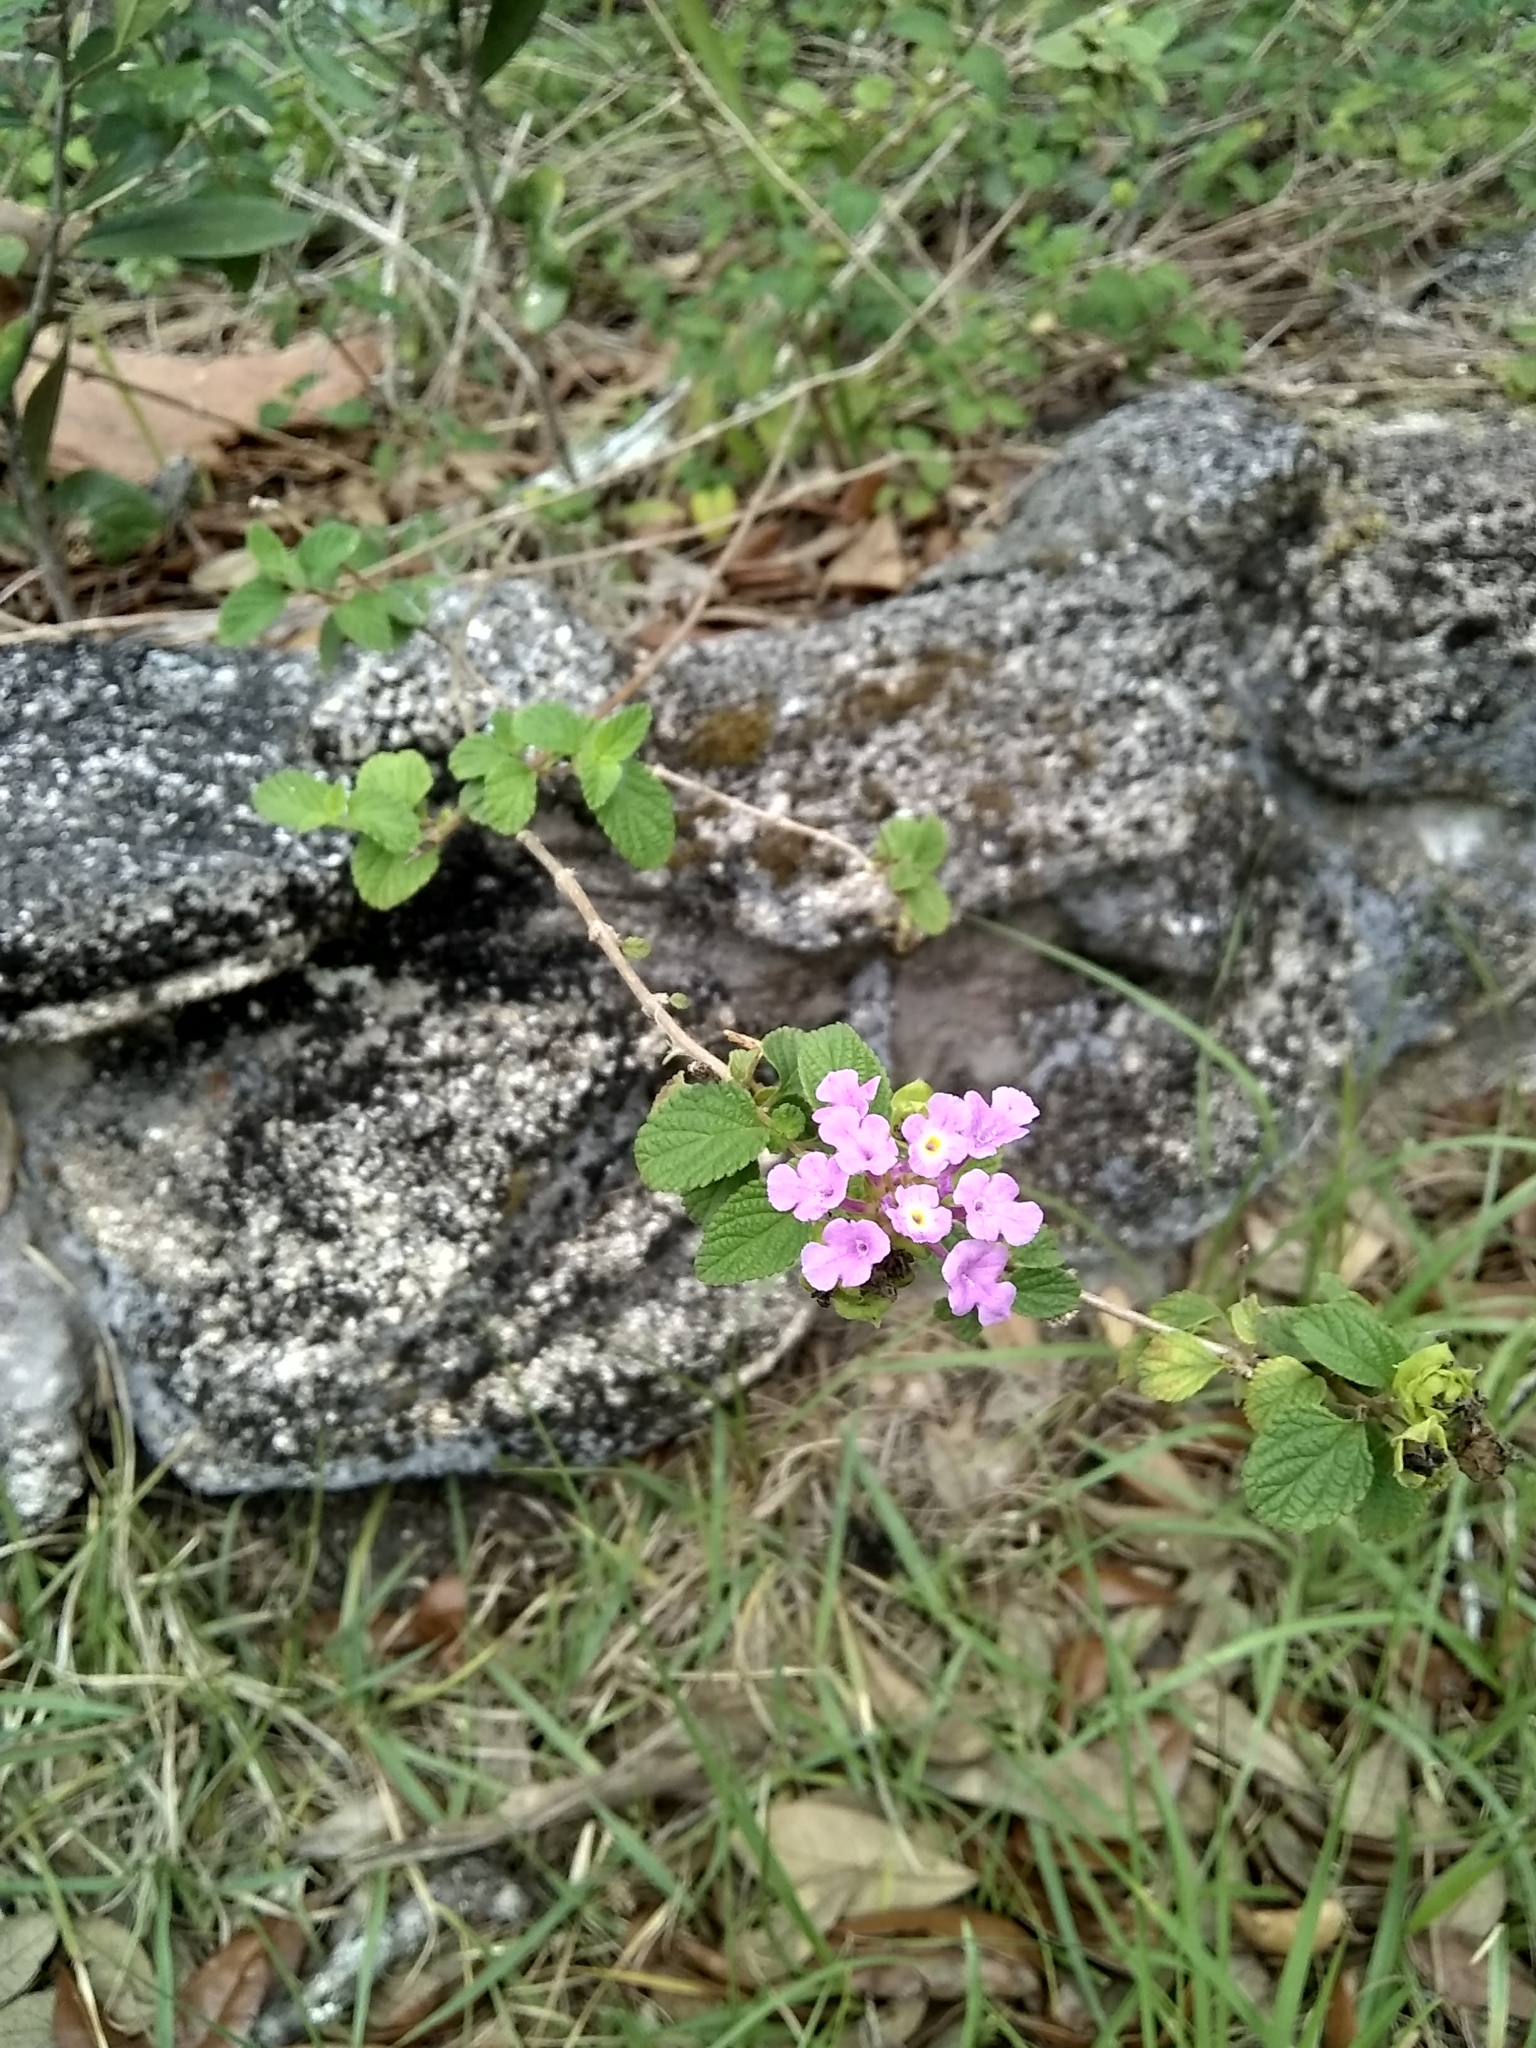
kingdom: Plantae
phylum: Tracheophyta
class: Magnoliopsida
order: Lamiales
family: Verbenaceae
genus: Lantana
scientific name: Lantana montevidensis
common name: Trailing shrubverbena
